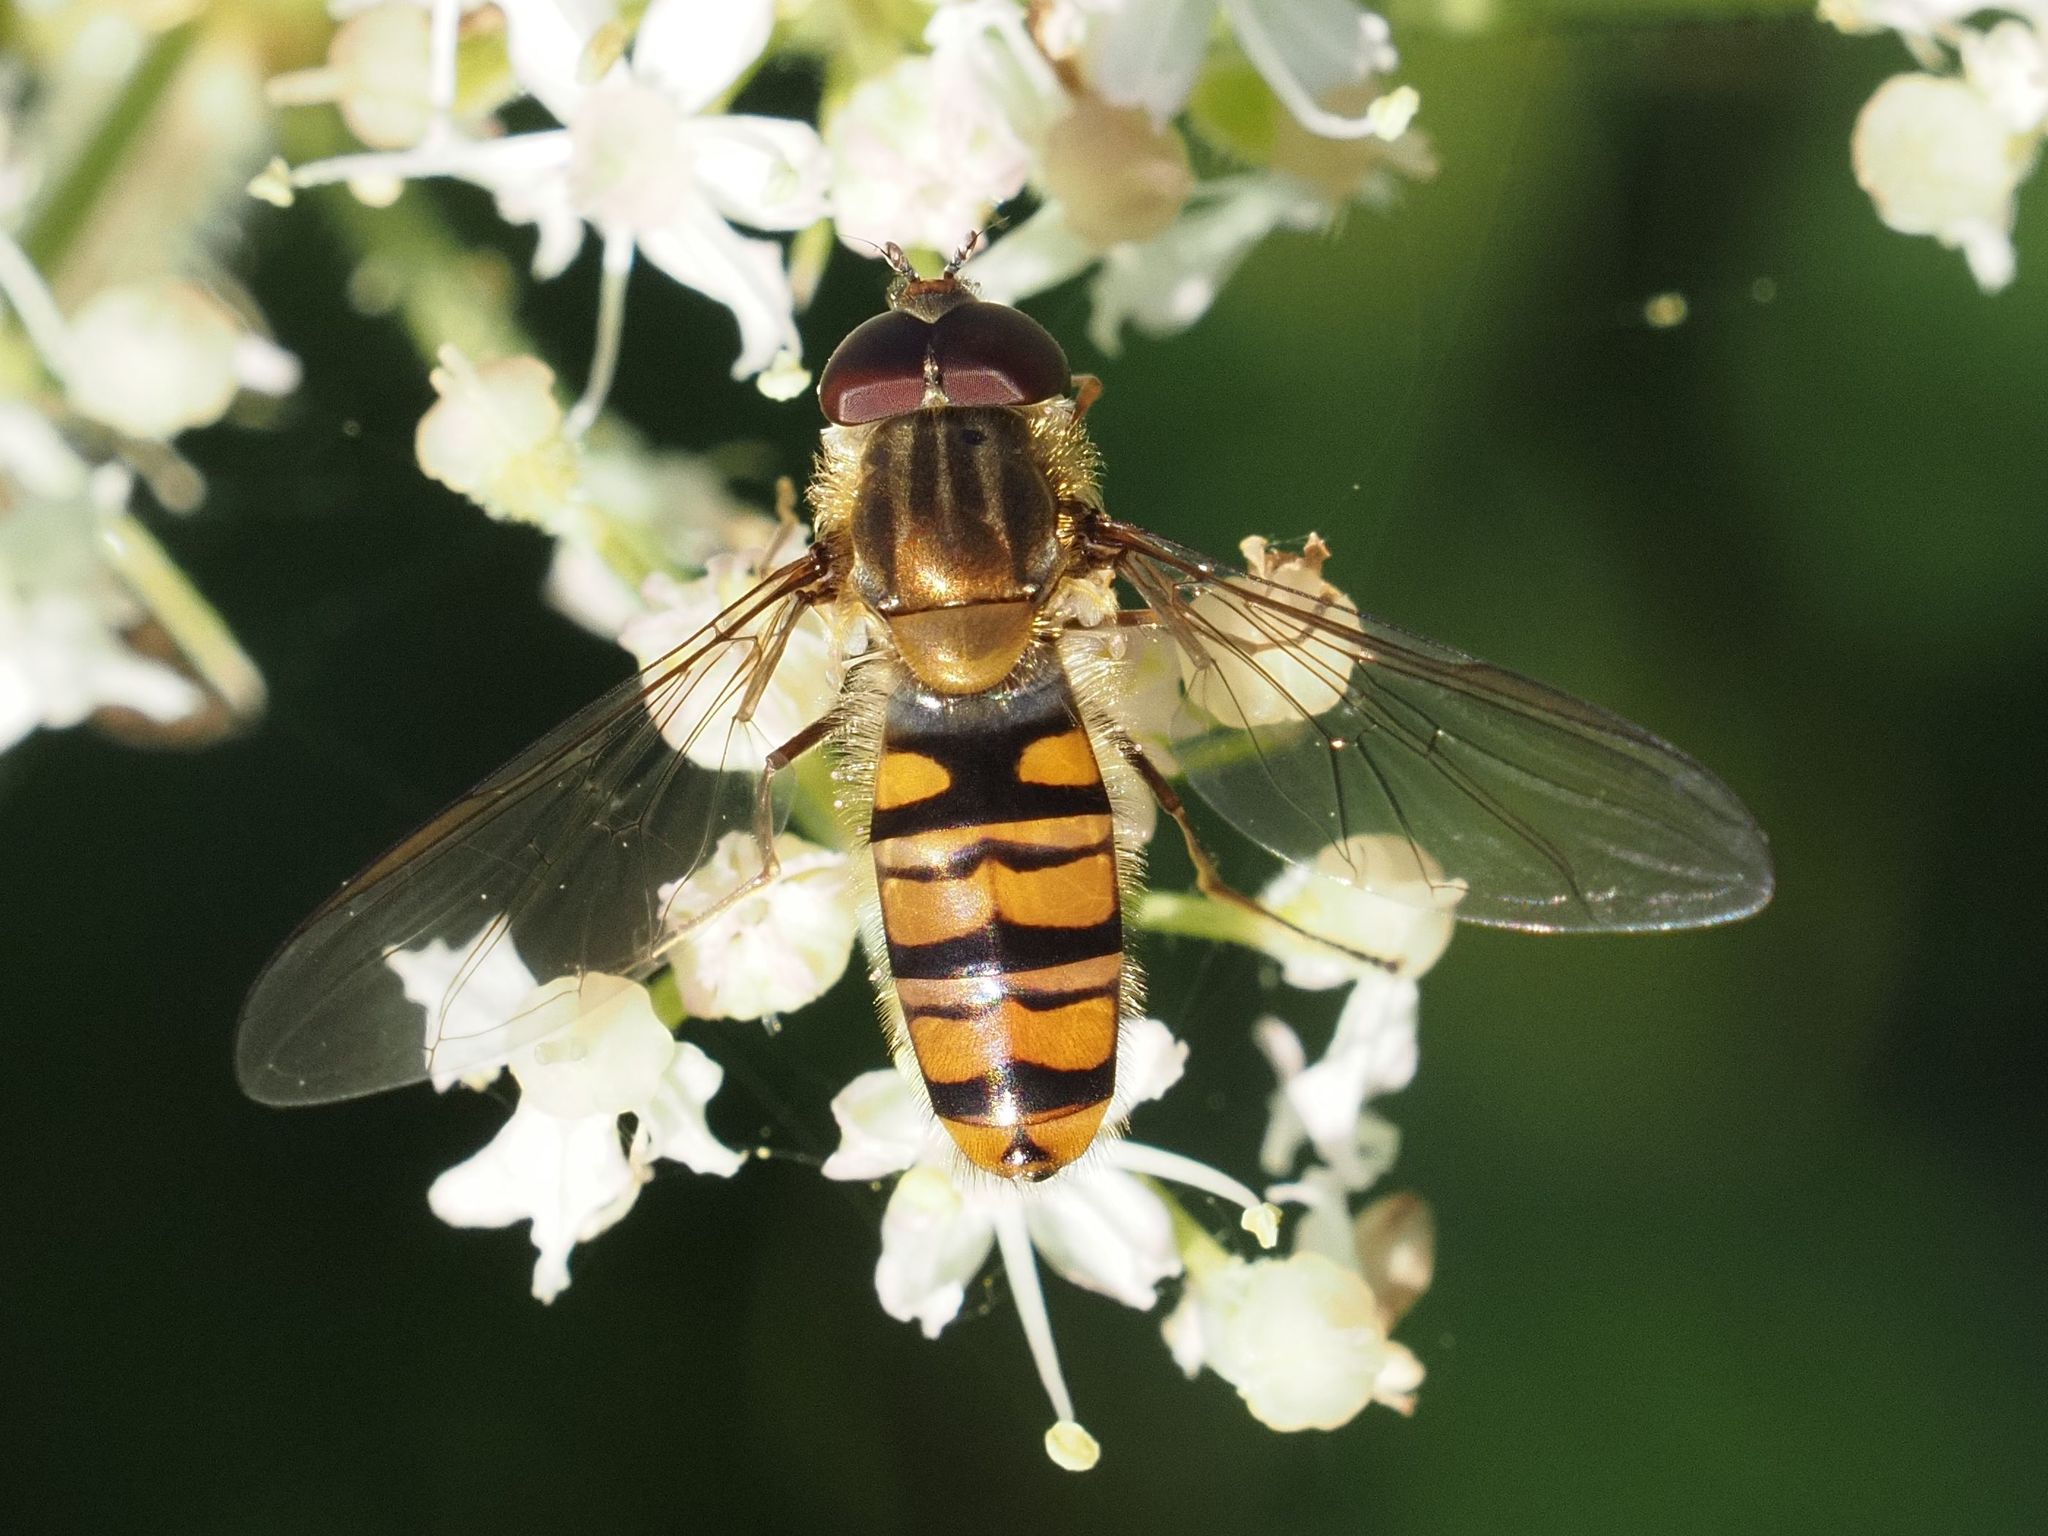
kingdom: Animalia
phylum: Arthropoda
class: Insecta
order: Diptera
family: Syrphidae
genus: Episyrphus
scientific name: Episyrphus balteatus
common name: Marmalade hoverfly
